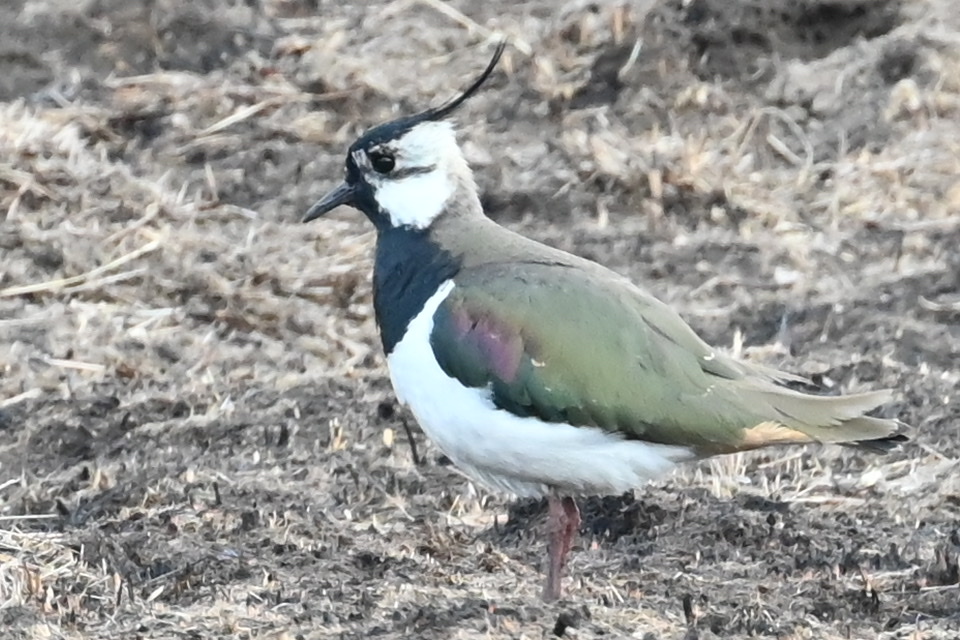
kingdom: Animalia
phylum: Chordata
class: Aves
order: Charadriiformes
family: Charadriidae
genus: Vanellus
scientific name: Vanellus vanellus
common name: Northern lapwing
